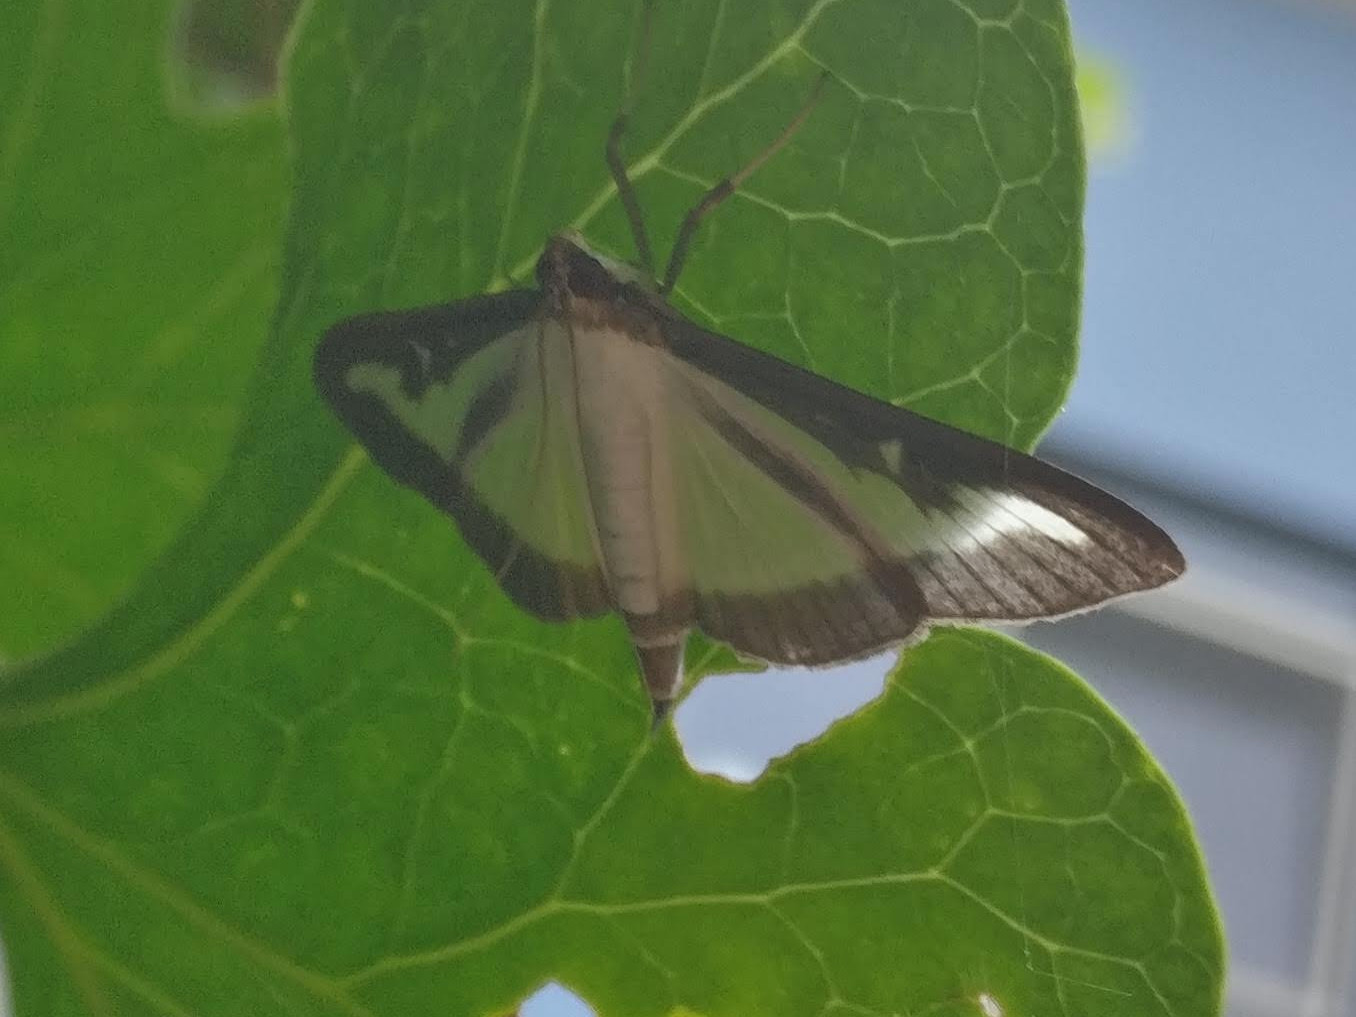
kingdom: Animalia
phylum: Arthropoda
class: Insecta
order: Lepidoptera
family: Crambidae
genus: Cydalima
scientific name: Cydalima perspectalis
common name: Box tree moth
